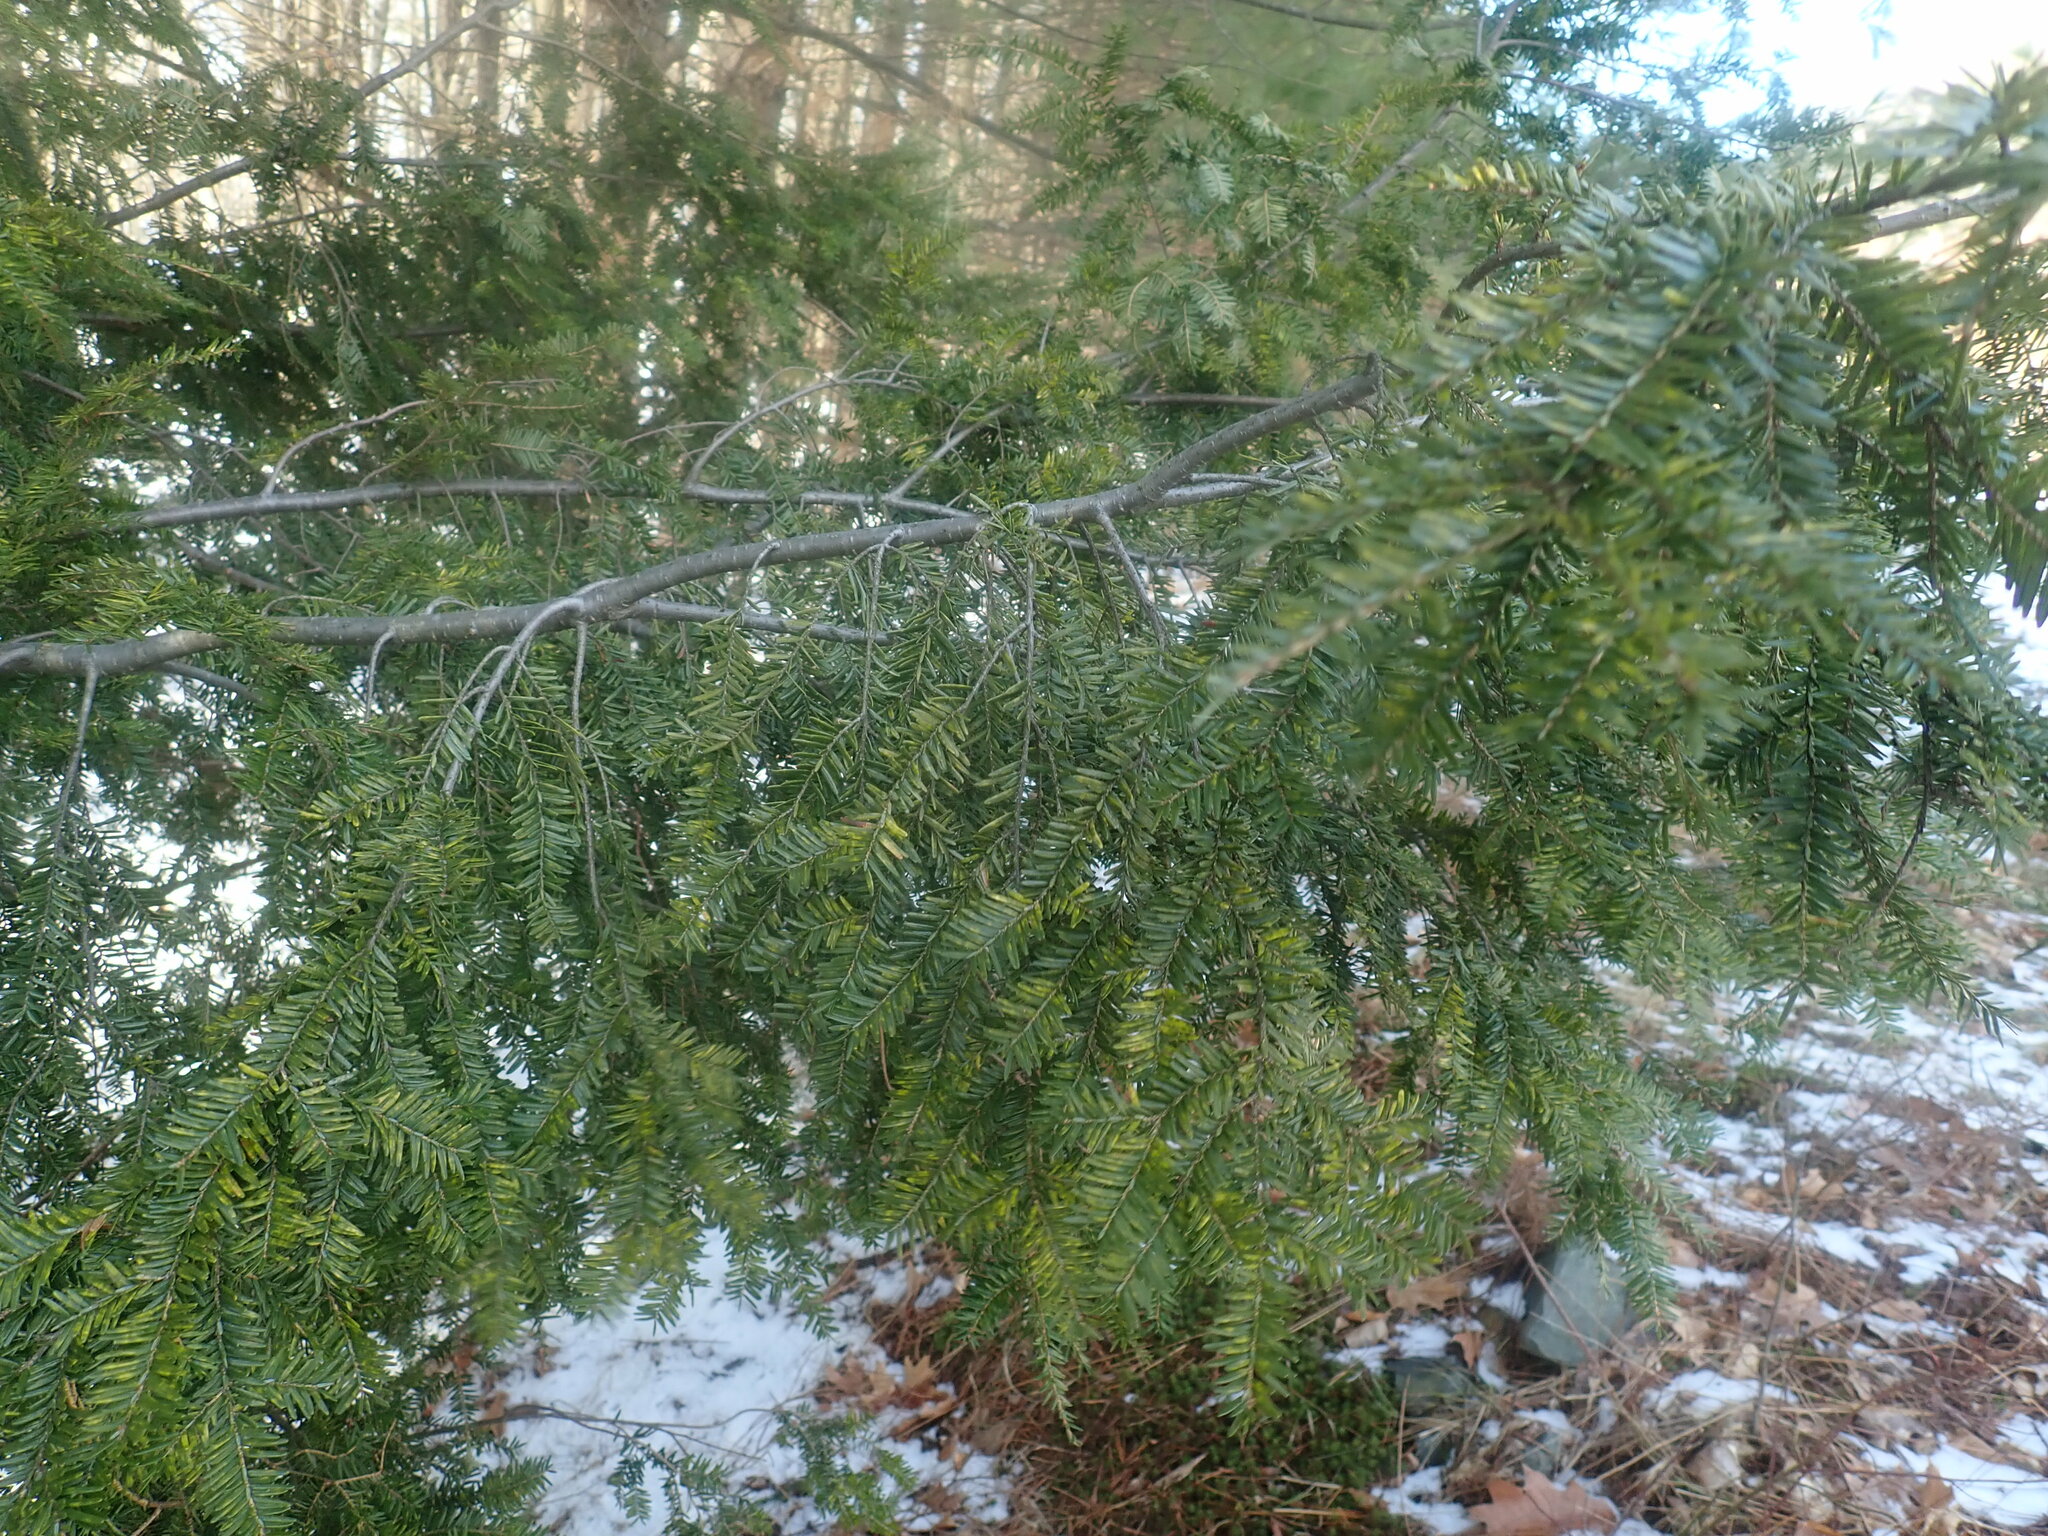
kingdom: Plantae
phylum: Tracheophyta
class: Pinopsida
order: Pinales
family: Pinaceae
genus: Tsuga
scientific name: Tsuga canadensis
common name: Eastern hemlock
